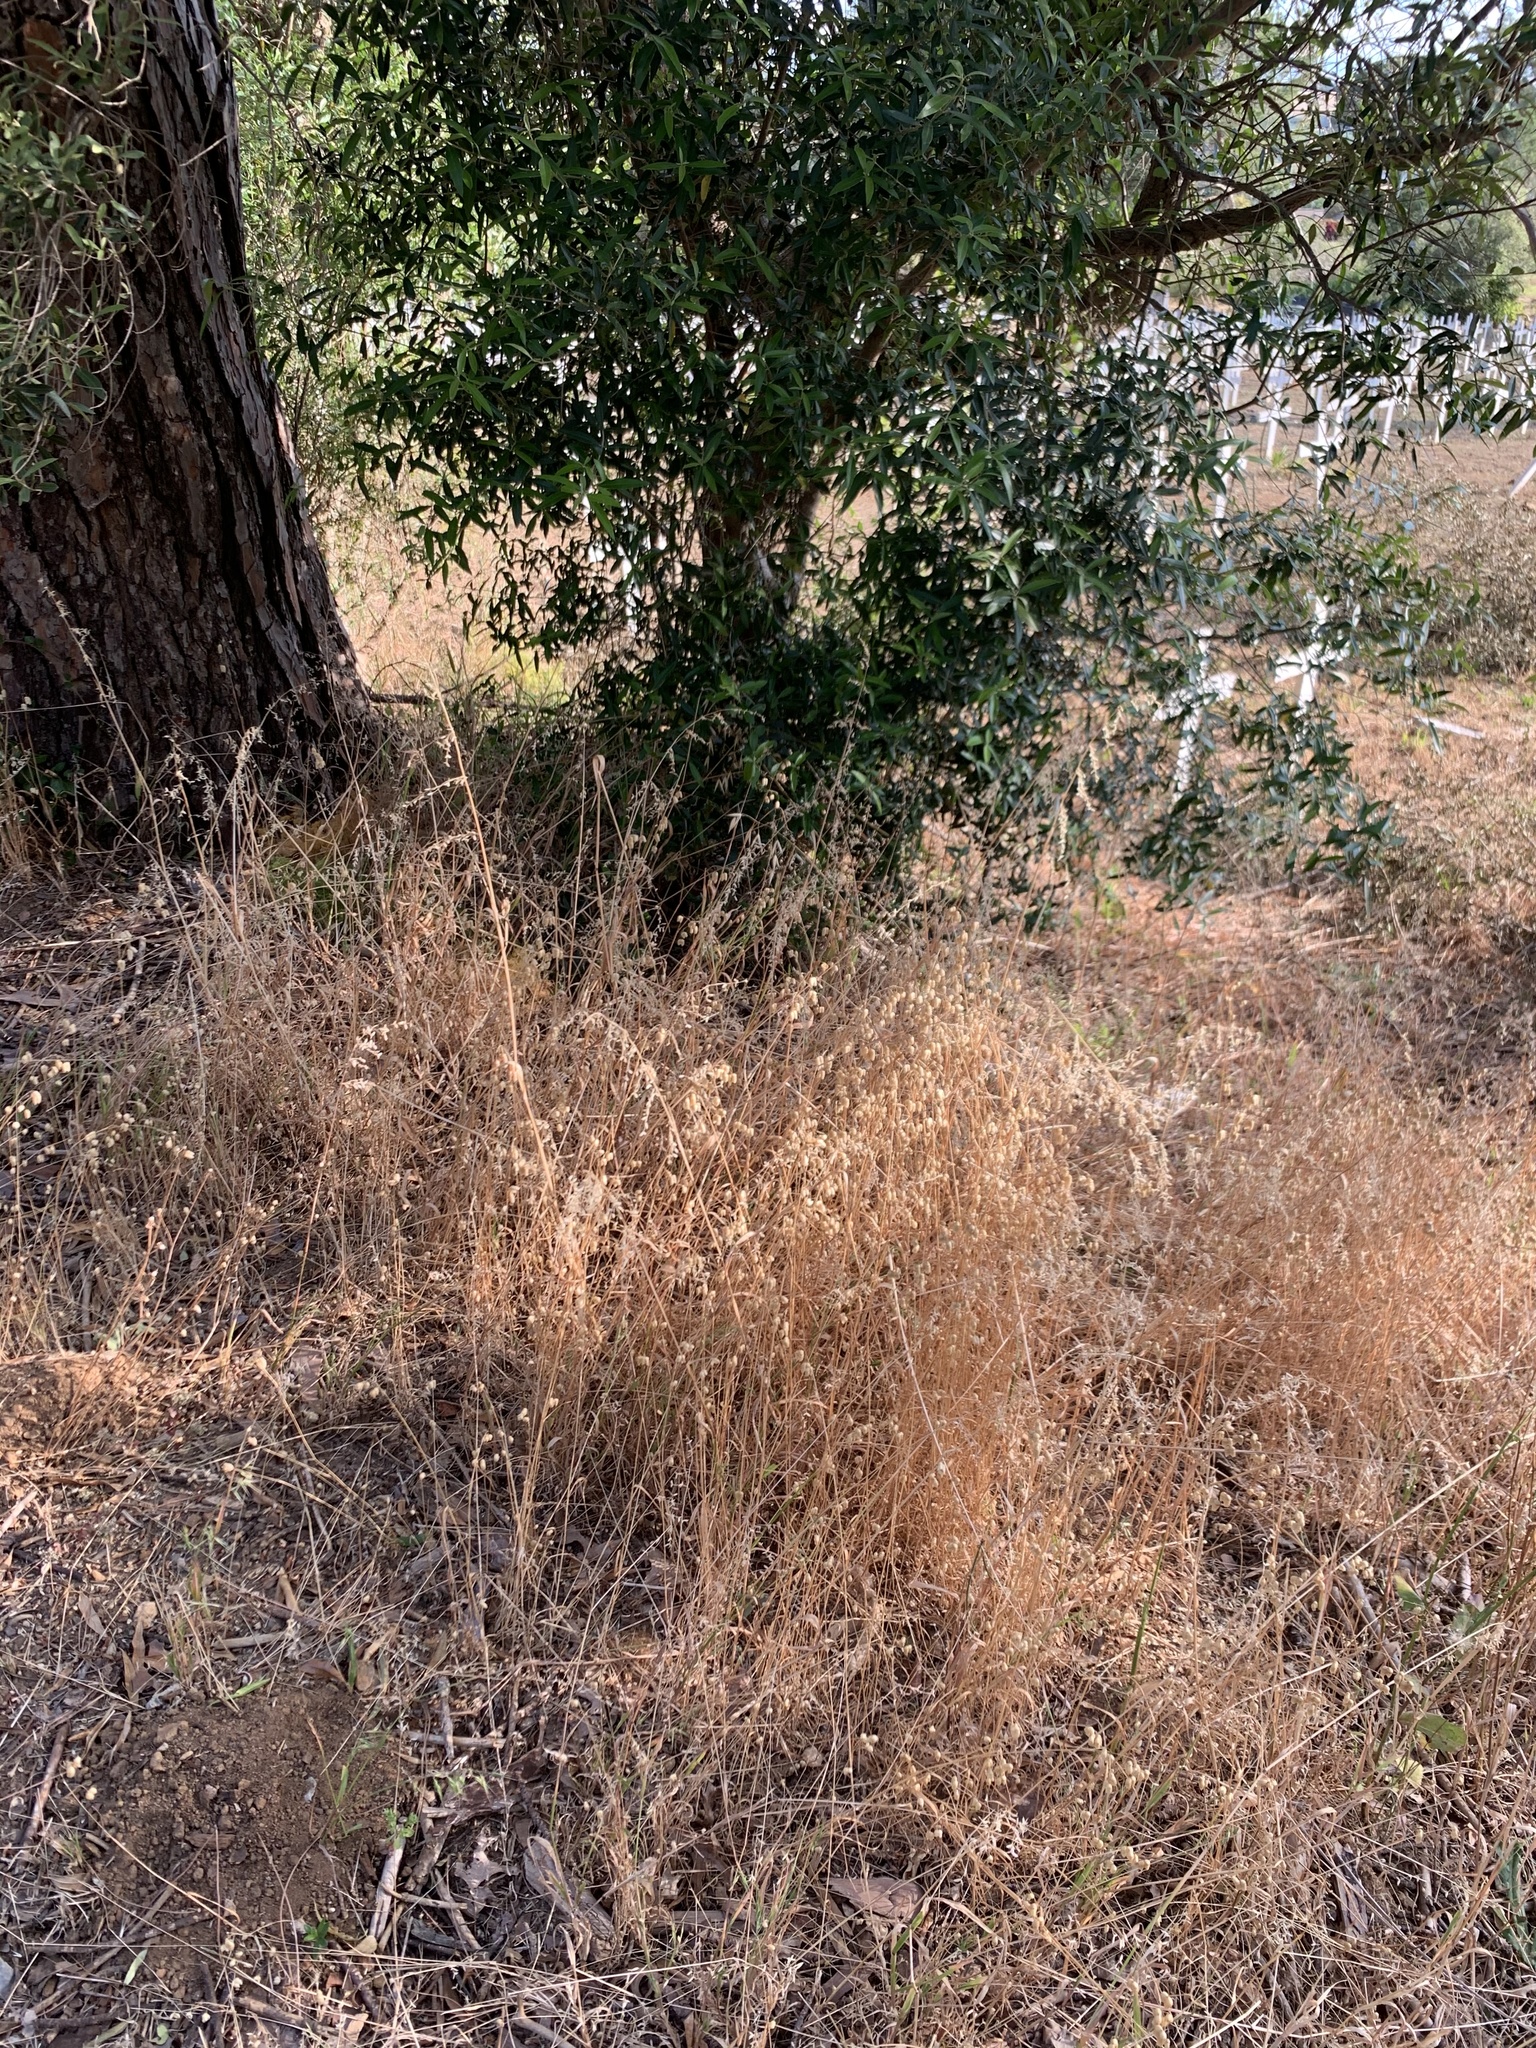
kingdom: Plantae
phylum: Tracheophyta
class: Liliopsida
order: Poales
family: Poaceae
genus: Briza
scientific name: Briza maxima
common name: Big quakinggrass
